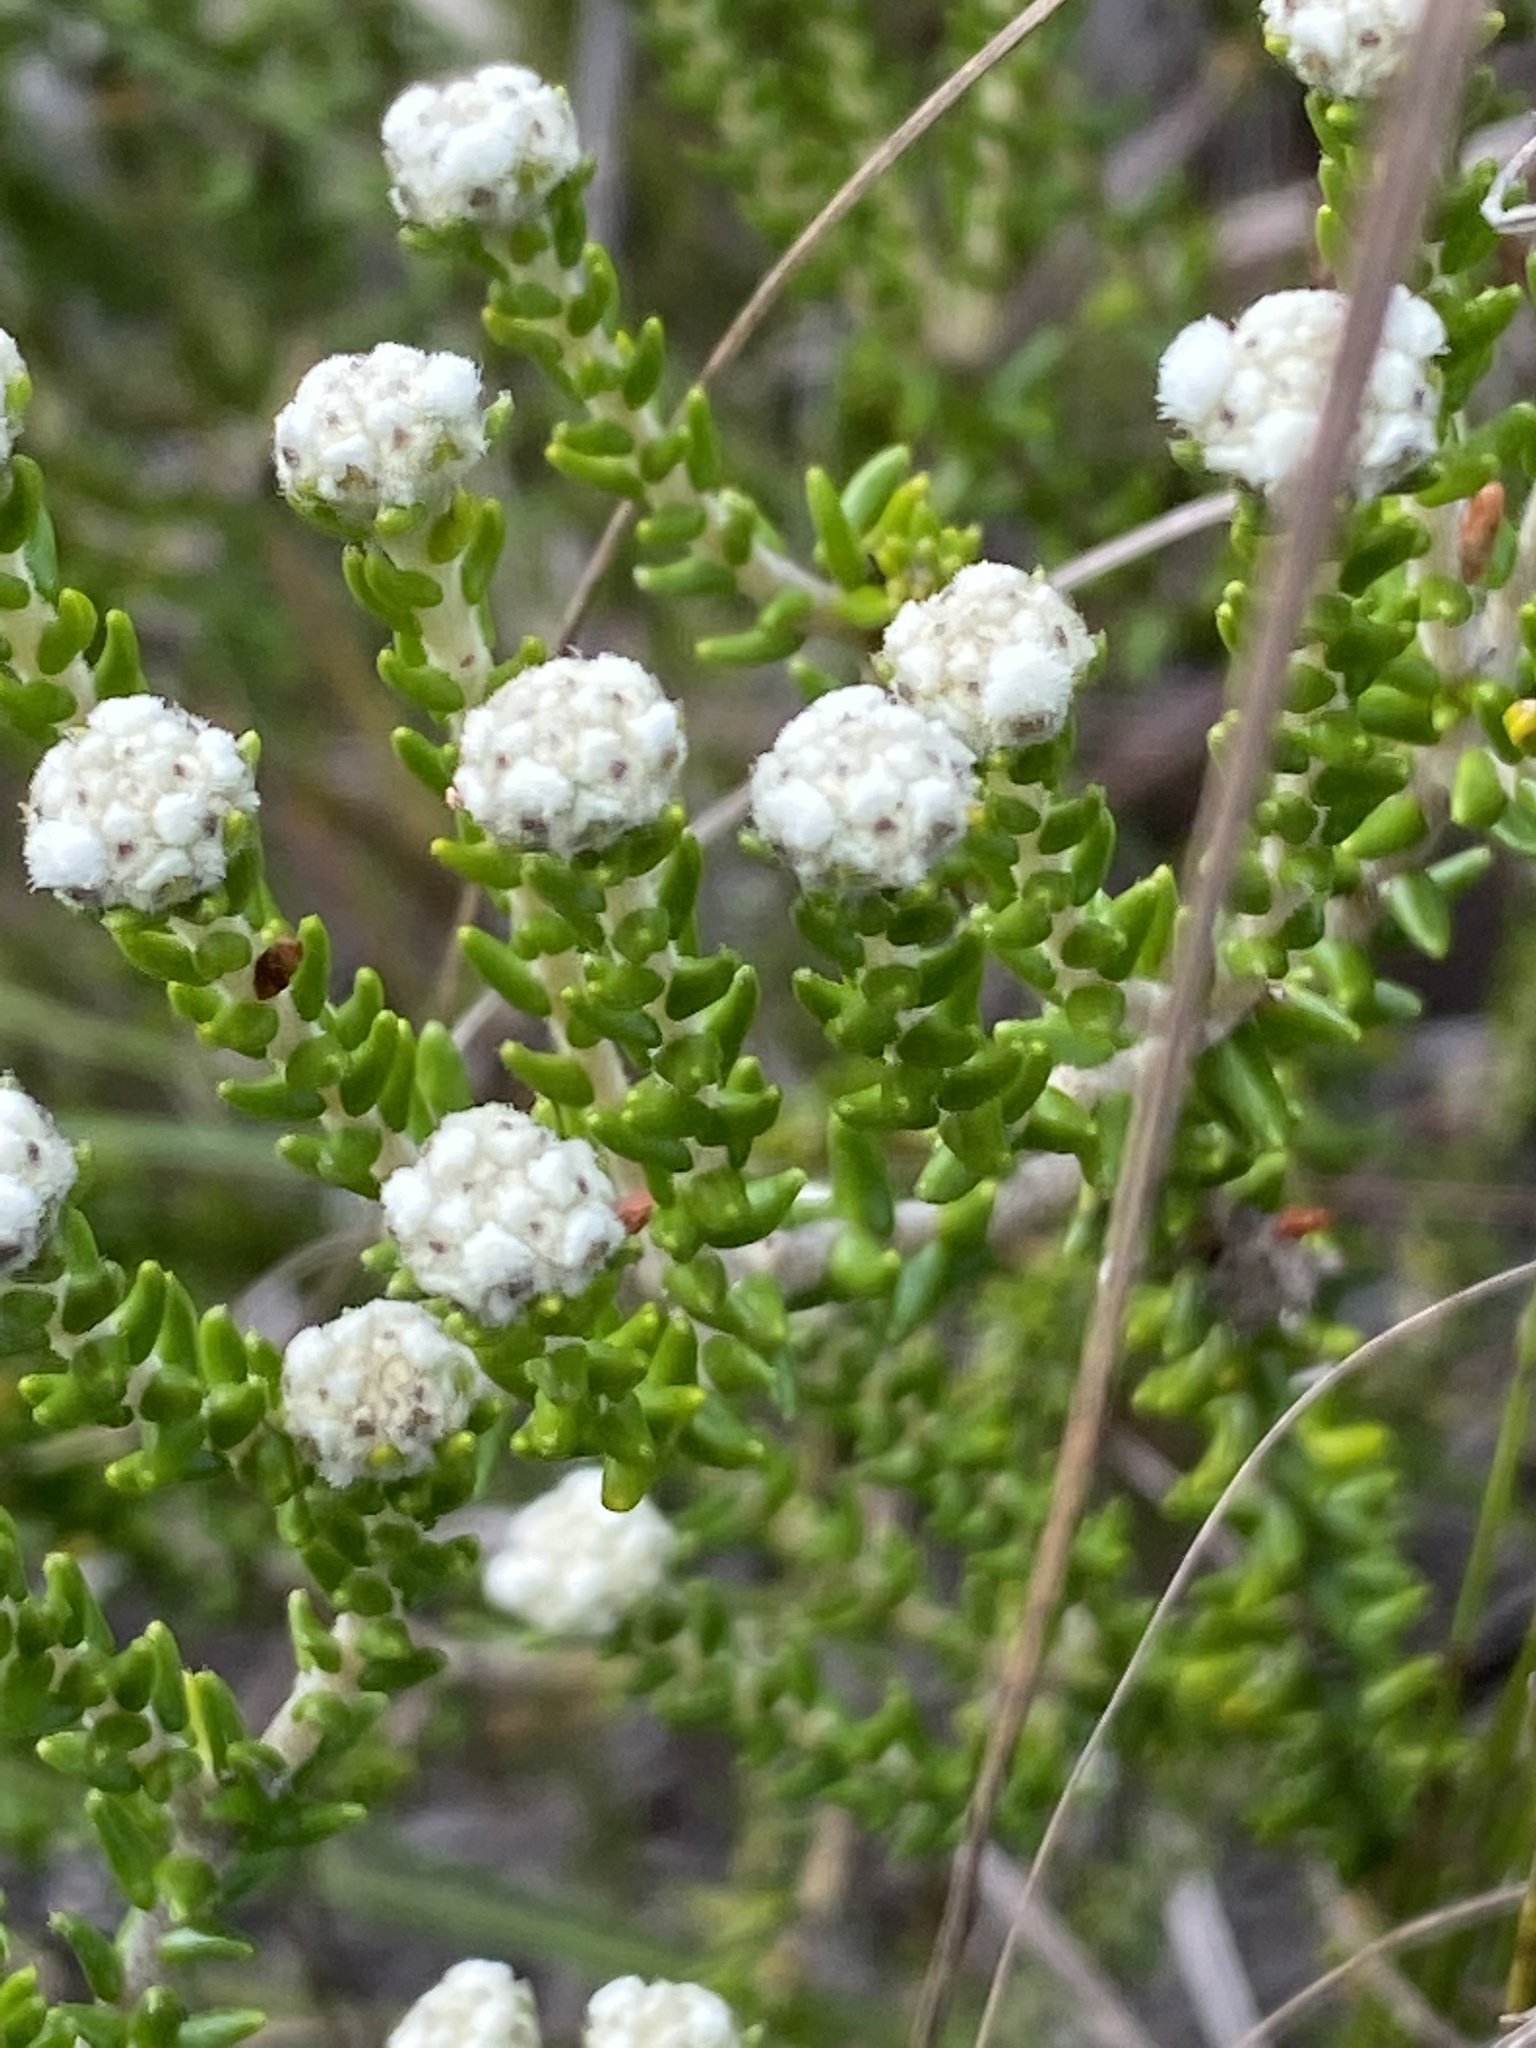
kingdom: Plantae
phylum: Tracheophyta
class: Magnoliopsida
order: Rosales
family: Rhamnaceae
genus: Phylica
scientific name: Phylica ericoides
